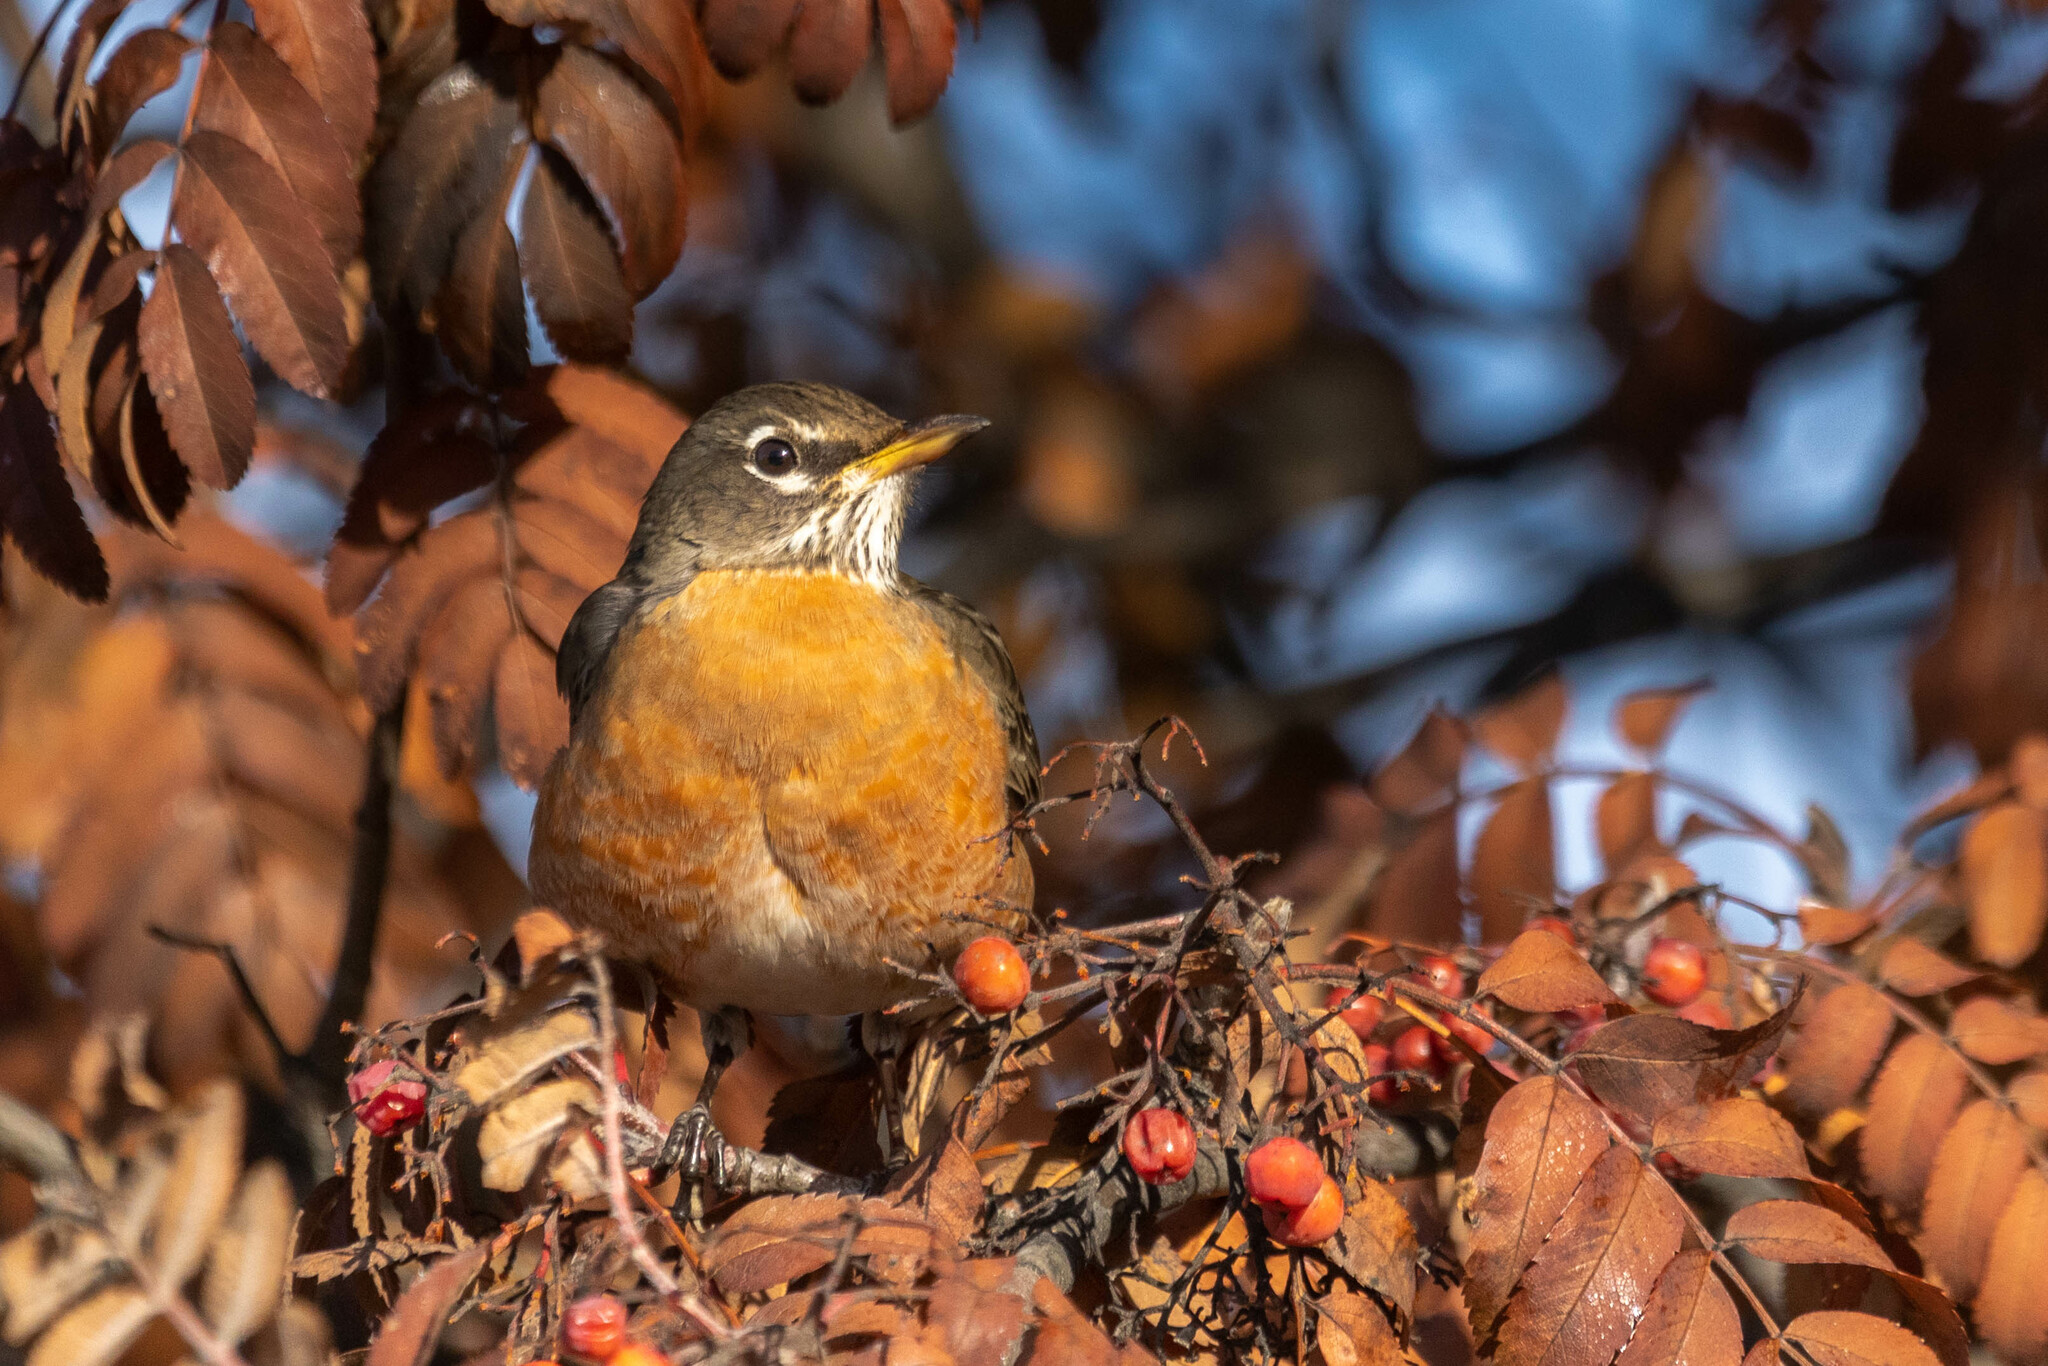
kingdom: Animalia
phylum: Chordata
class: Aves
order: Passeriformes
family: Turdidae
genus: Turdus
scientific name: Turdus migratorius
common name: American robin
